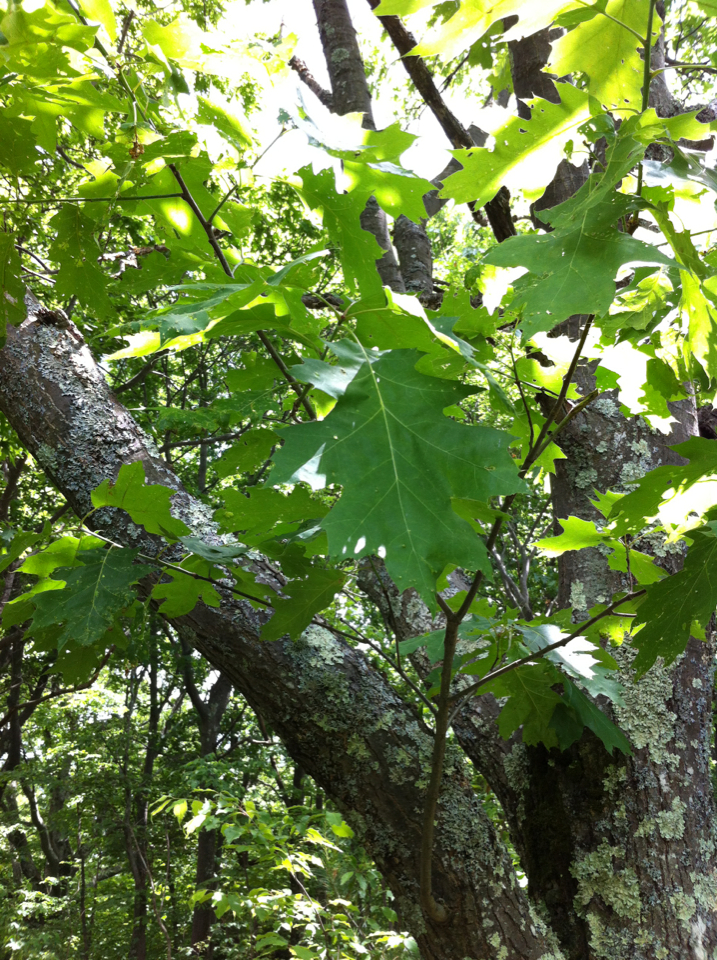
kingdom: Plantae
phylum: Tracheophyta
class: Magnoliopsida
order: Fagales
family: Fagaceae
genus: Quercus
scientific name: Quercus rubra
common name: Red oak
